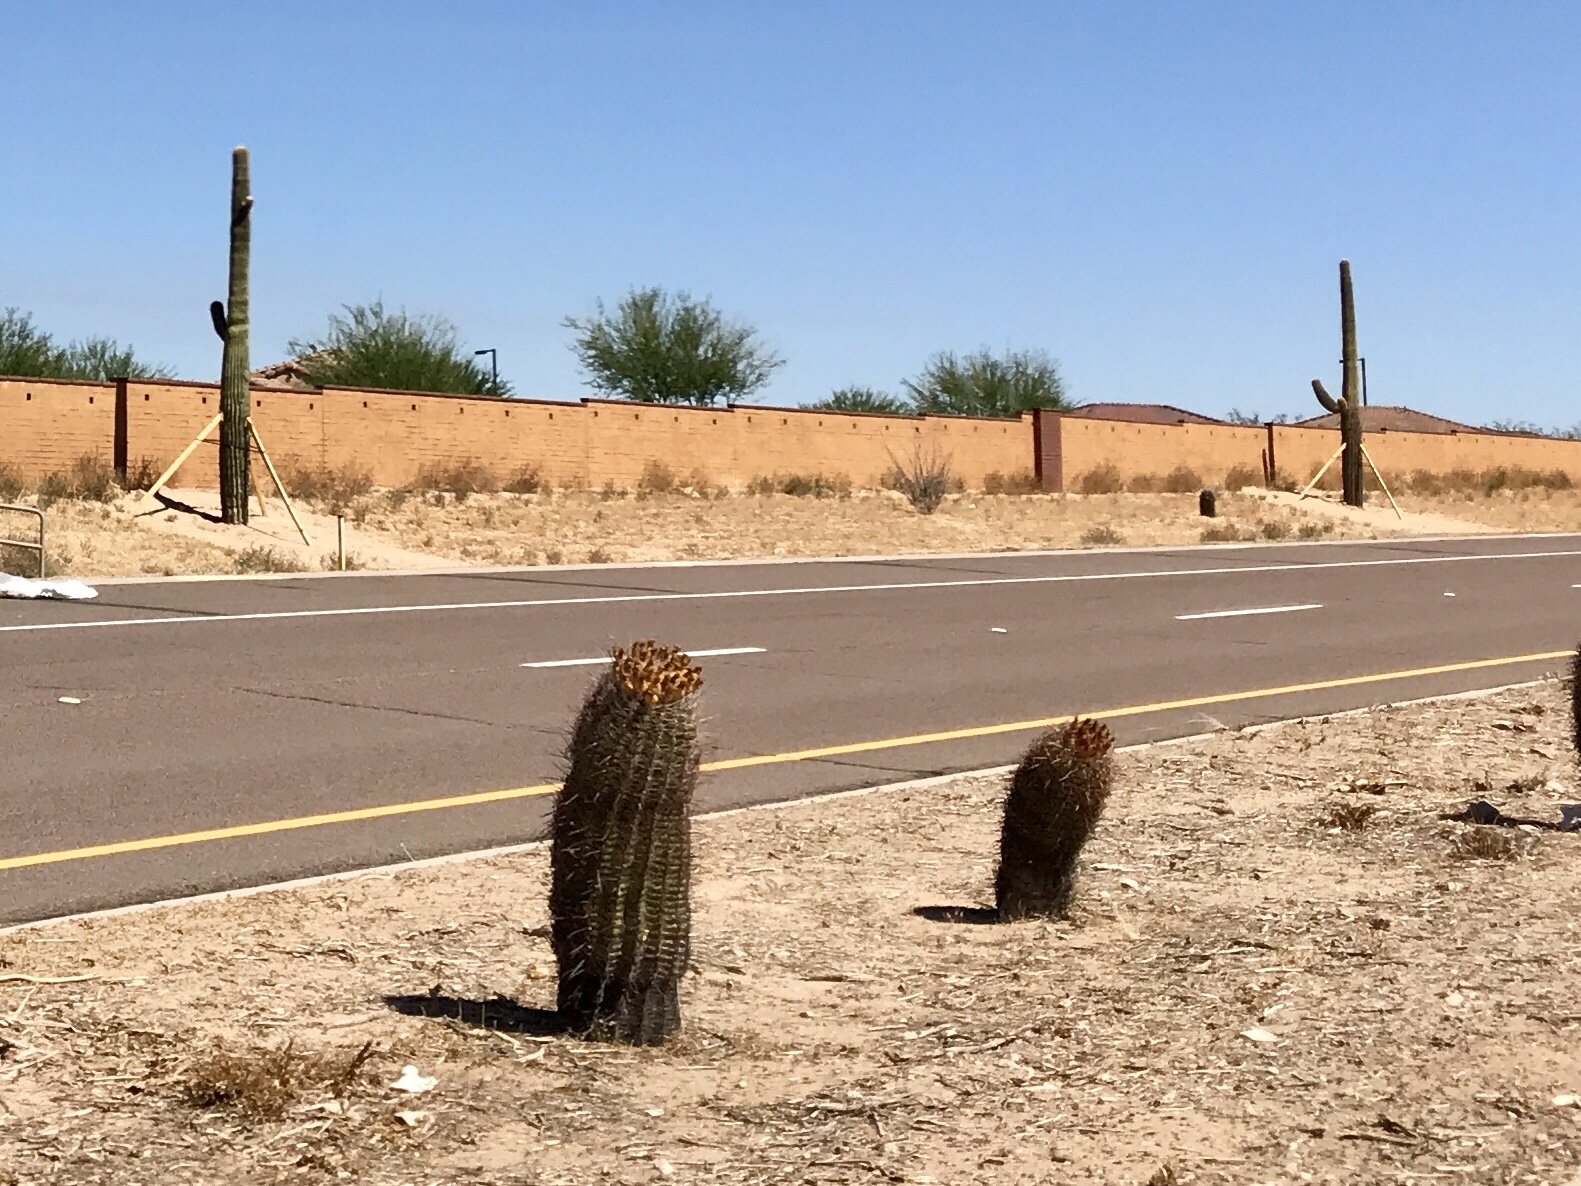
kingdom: Plantae
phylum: Tracheophyta
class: Magnoliopsida
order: Caryophyllales
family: Cactaceae
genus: Ferocactus
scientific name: Ferocactus wislizeni
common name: Candy barrel cactus
